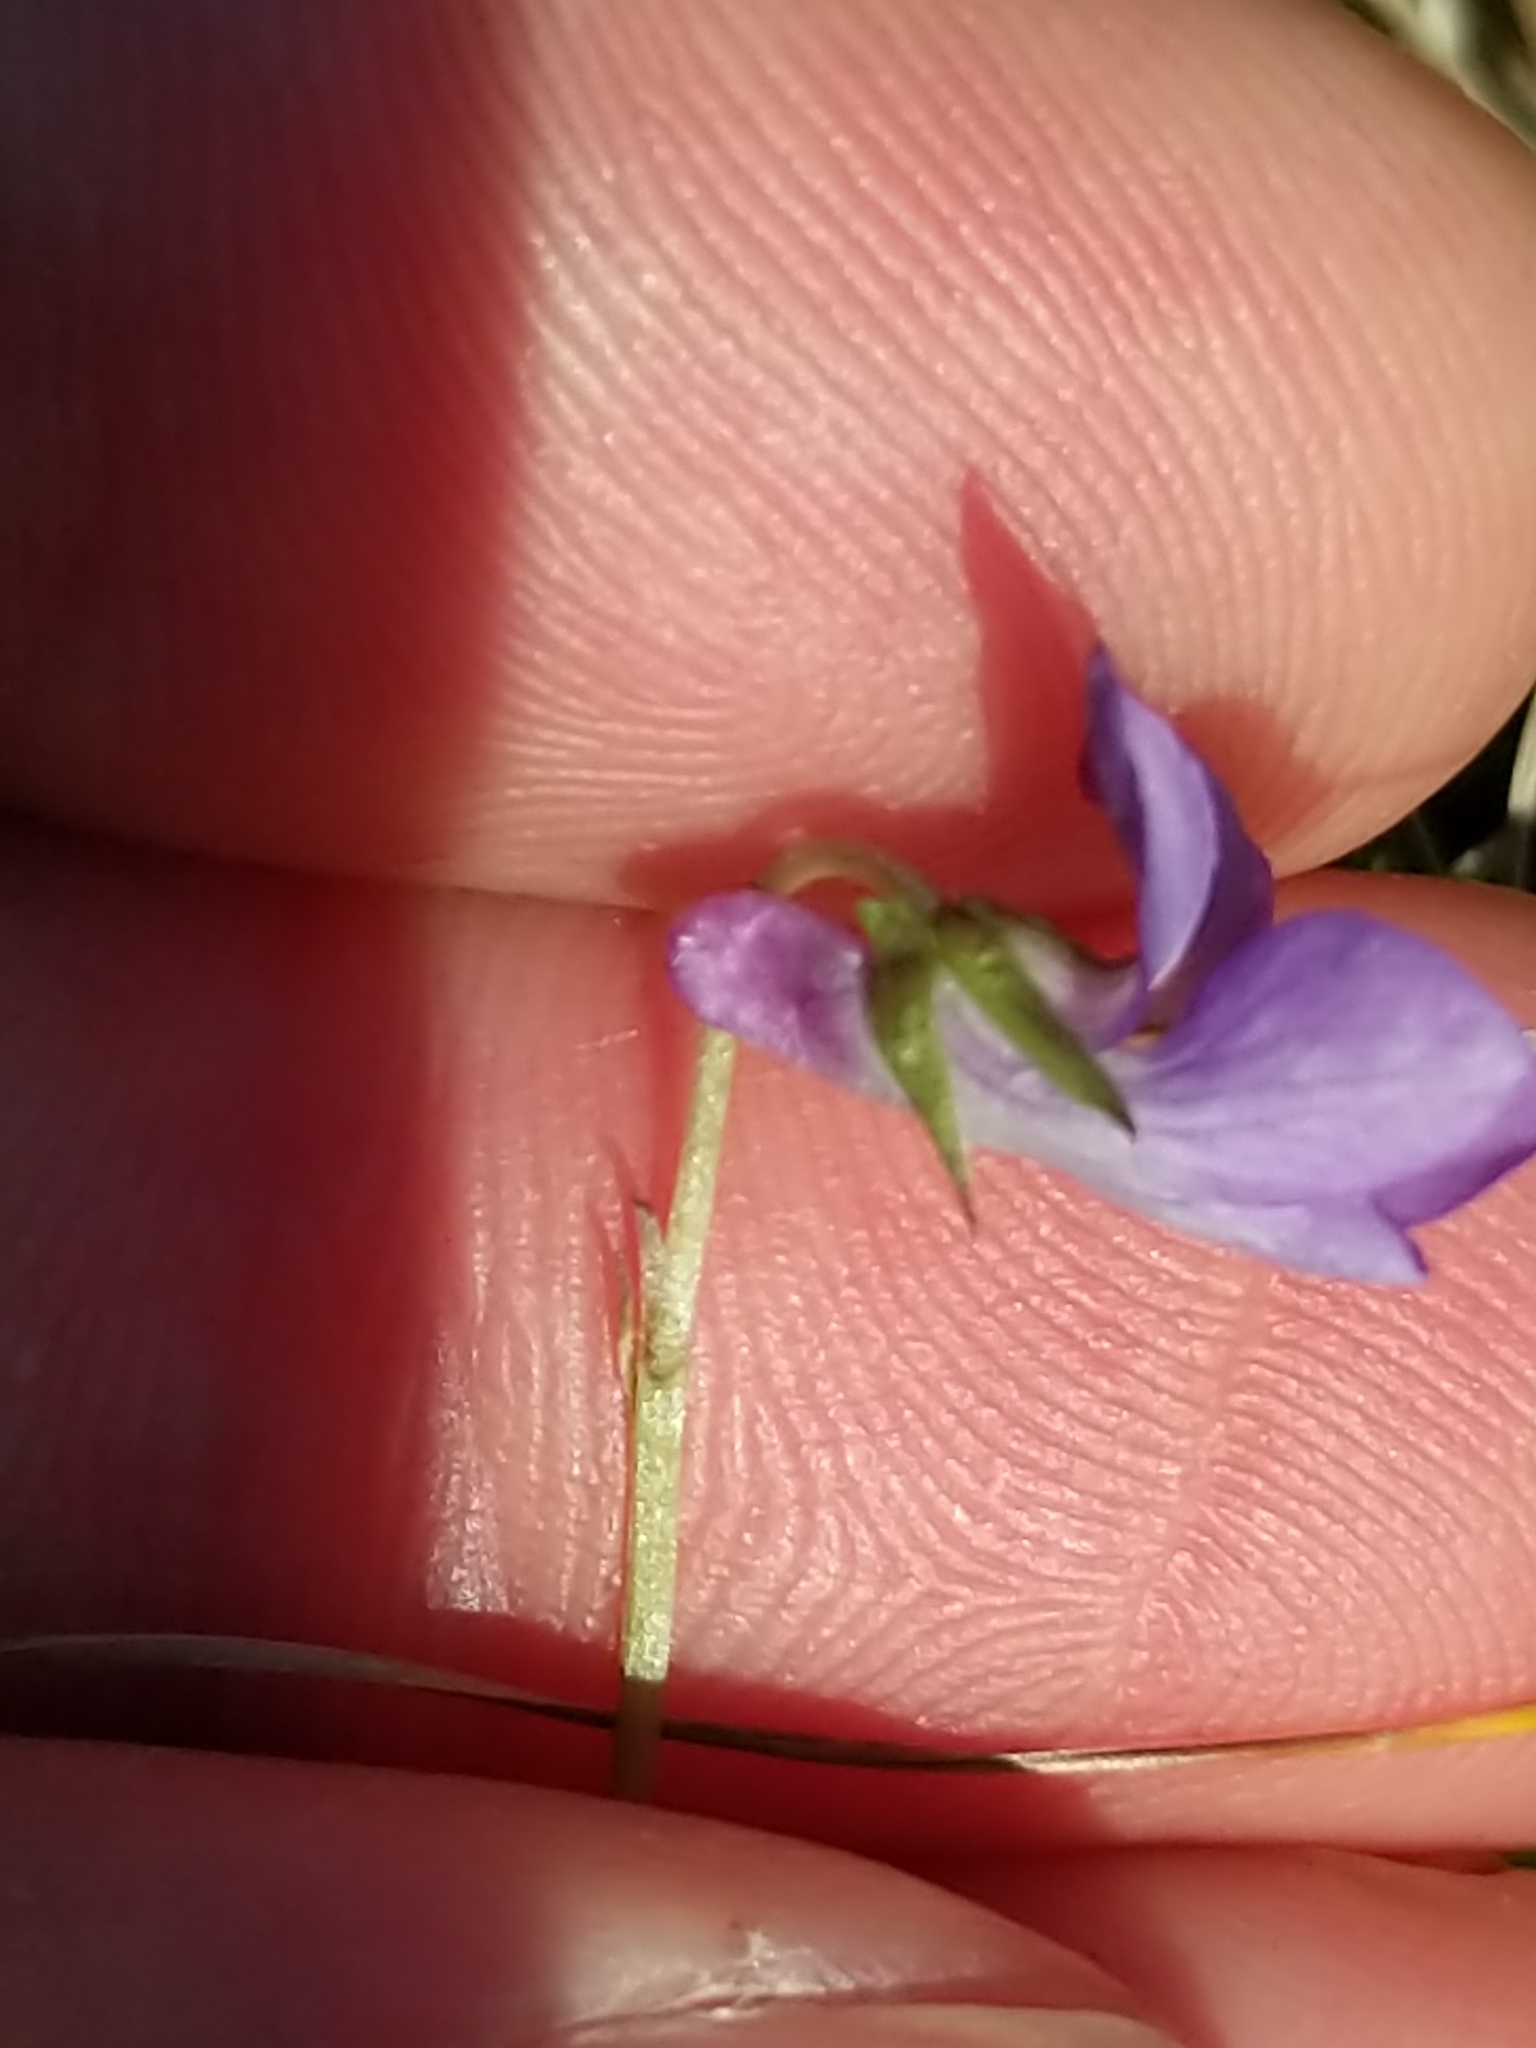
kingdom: Plantae
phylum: Tracheophyta
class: Magnoliopsida
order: Malpighiales
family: Violaceae
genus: Viola
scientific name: Viola labradorica
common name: Labrador violet
